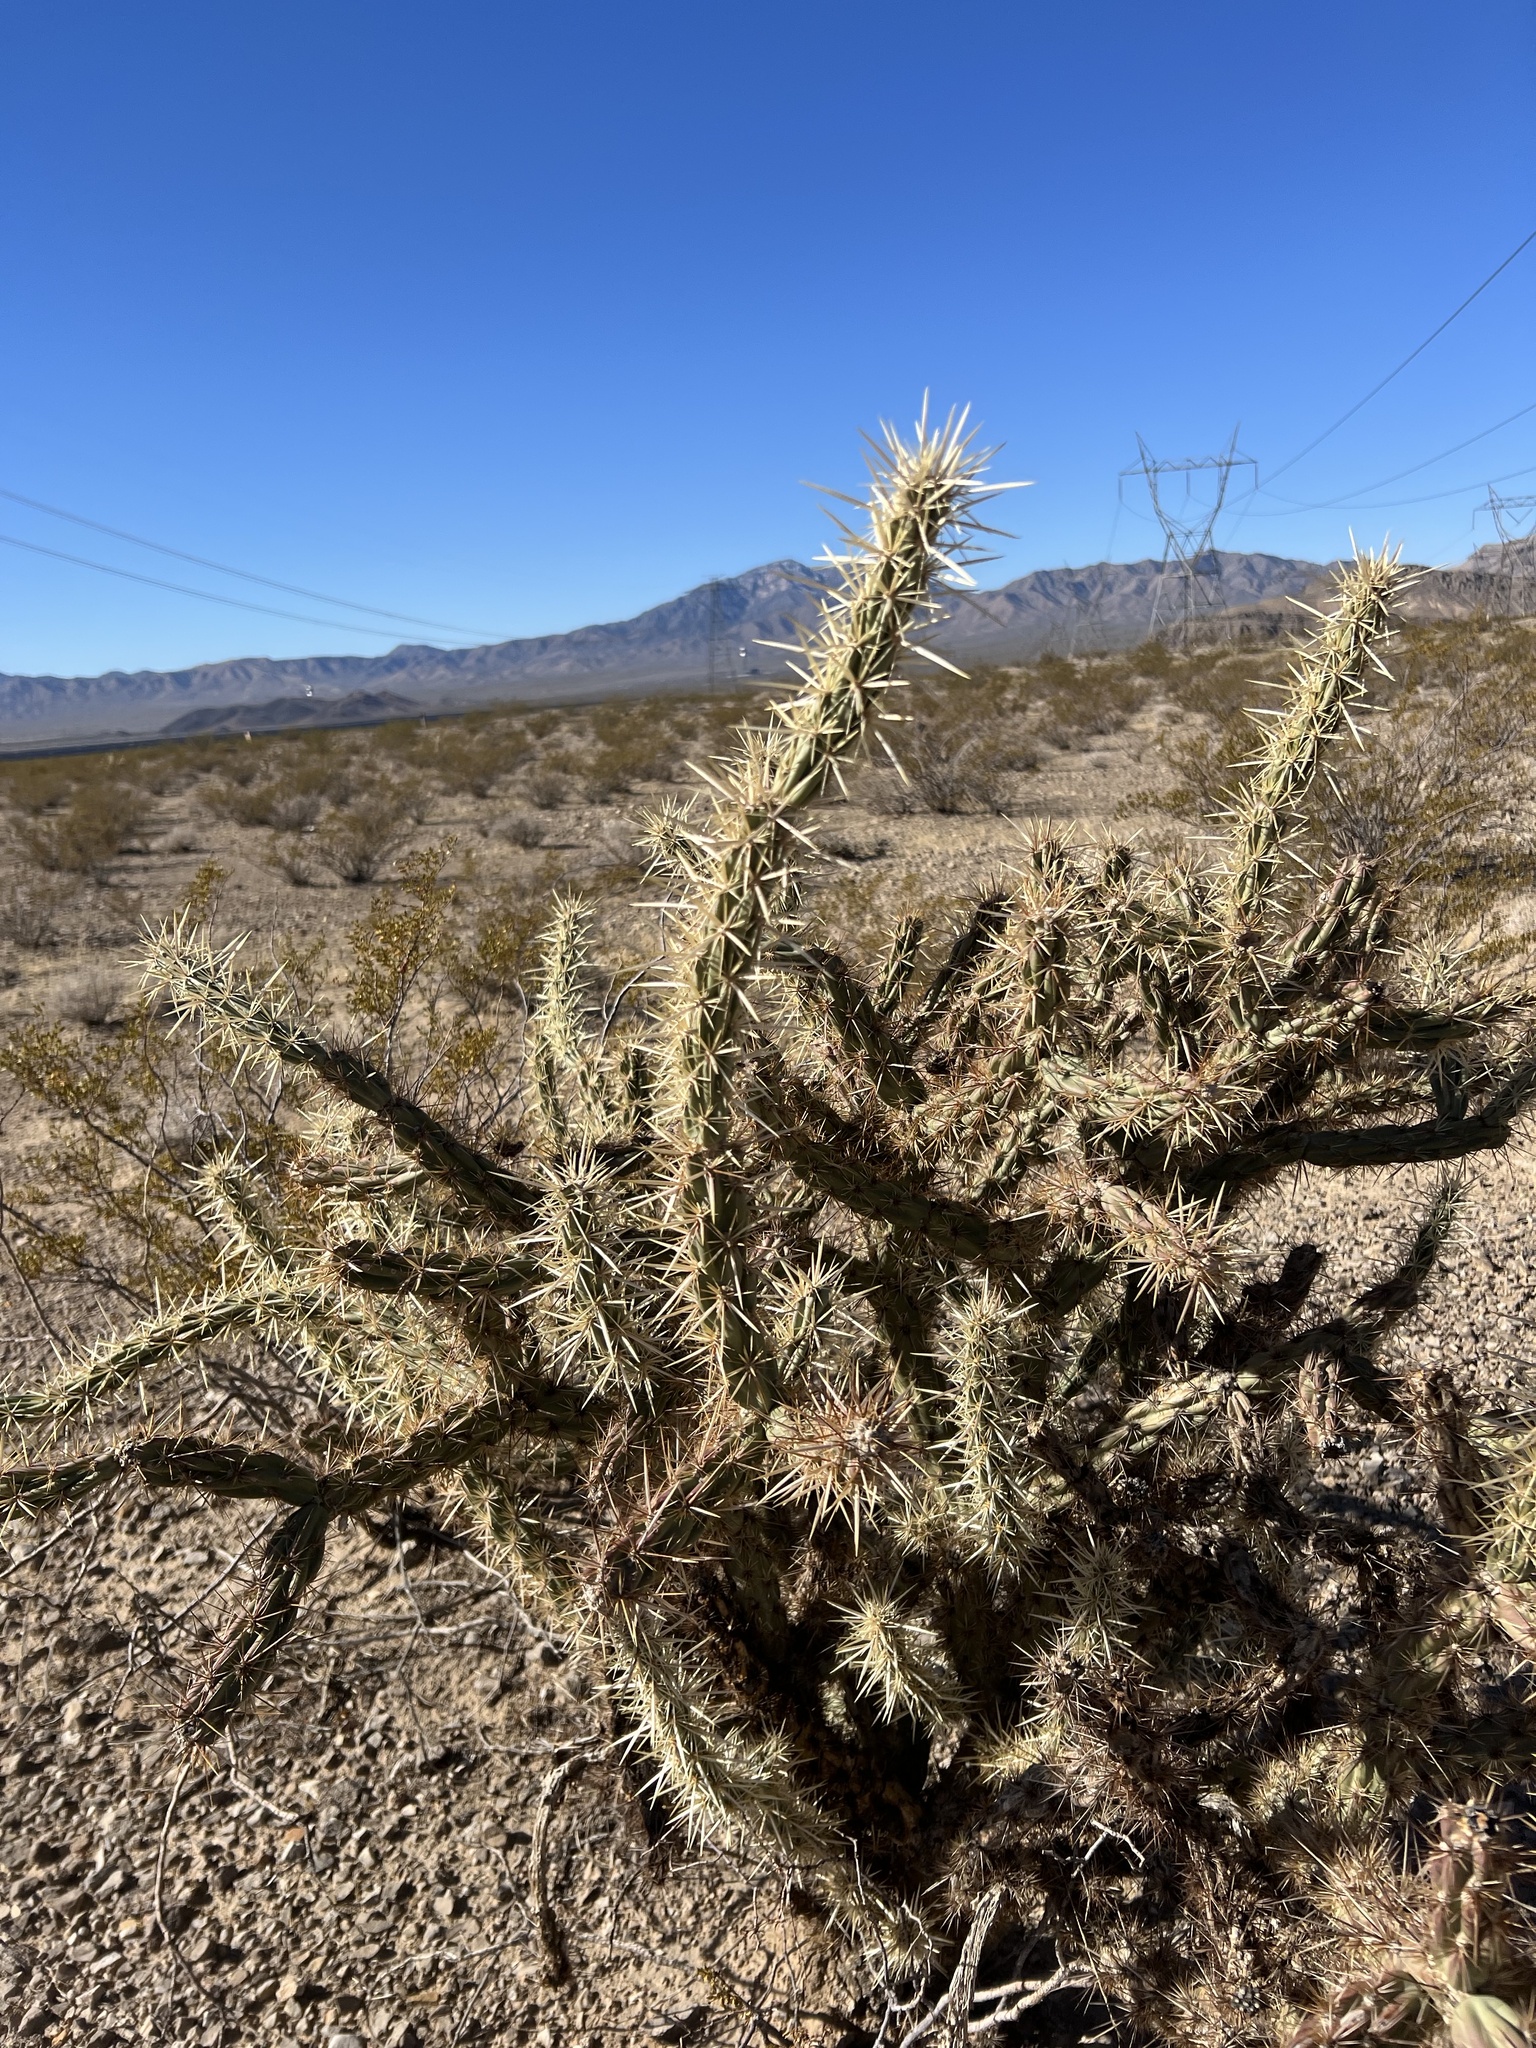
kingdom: Plantae
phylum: Tracheophyta
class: Magnoliopsida
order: Caryophyllales
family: Cactaceae
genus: Cylindropuntia
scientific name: Cylindropuntia acanthocarpa
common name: Buckhorn cholla
